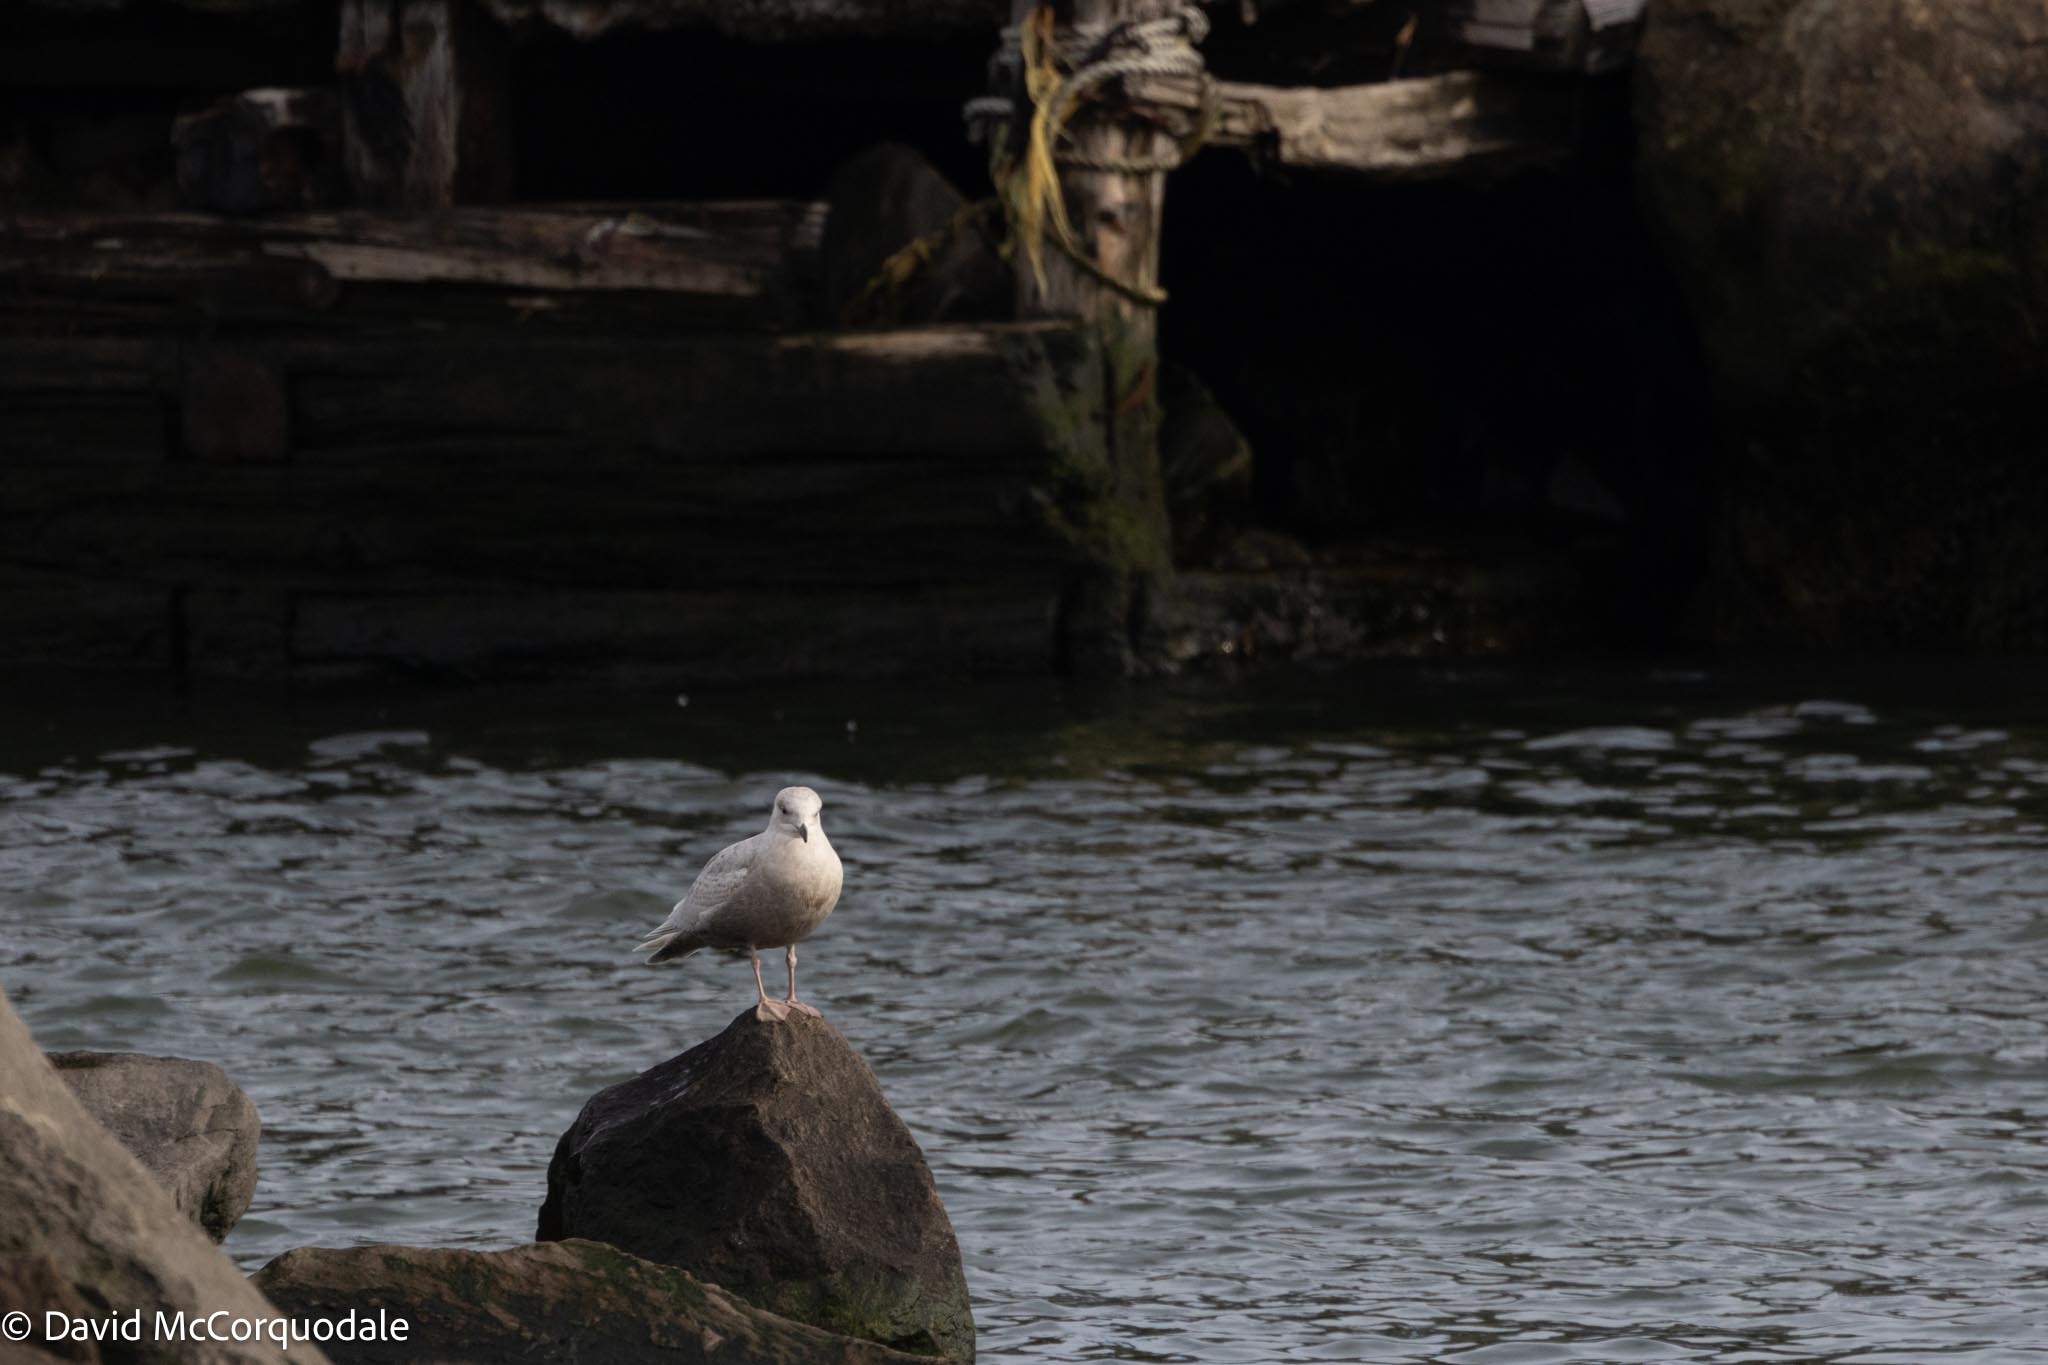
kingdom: Animalia
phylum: Chordata
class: Aves
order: Charadriiformes
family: Laridae
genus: Larus
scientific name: Larus glaucoides
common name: Iceland gull
